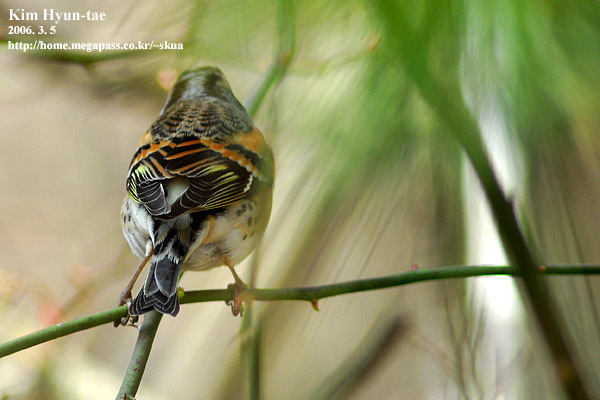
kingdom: Animalia
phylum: Chordata
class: Aves
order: Passeriformes
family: Fringillidae
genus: Fringilla
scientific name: Fringilla montifringilla
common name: Brambling
